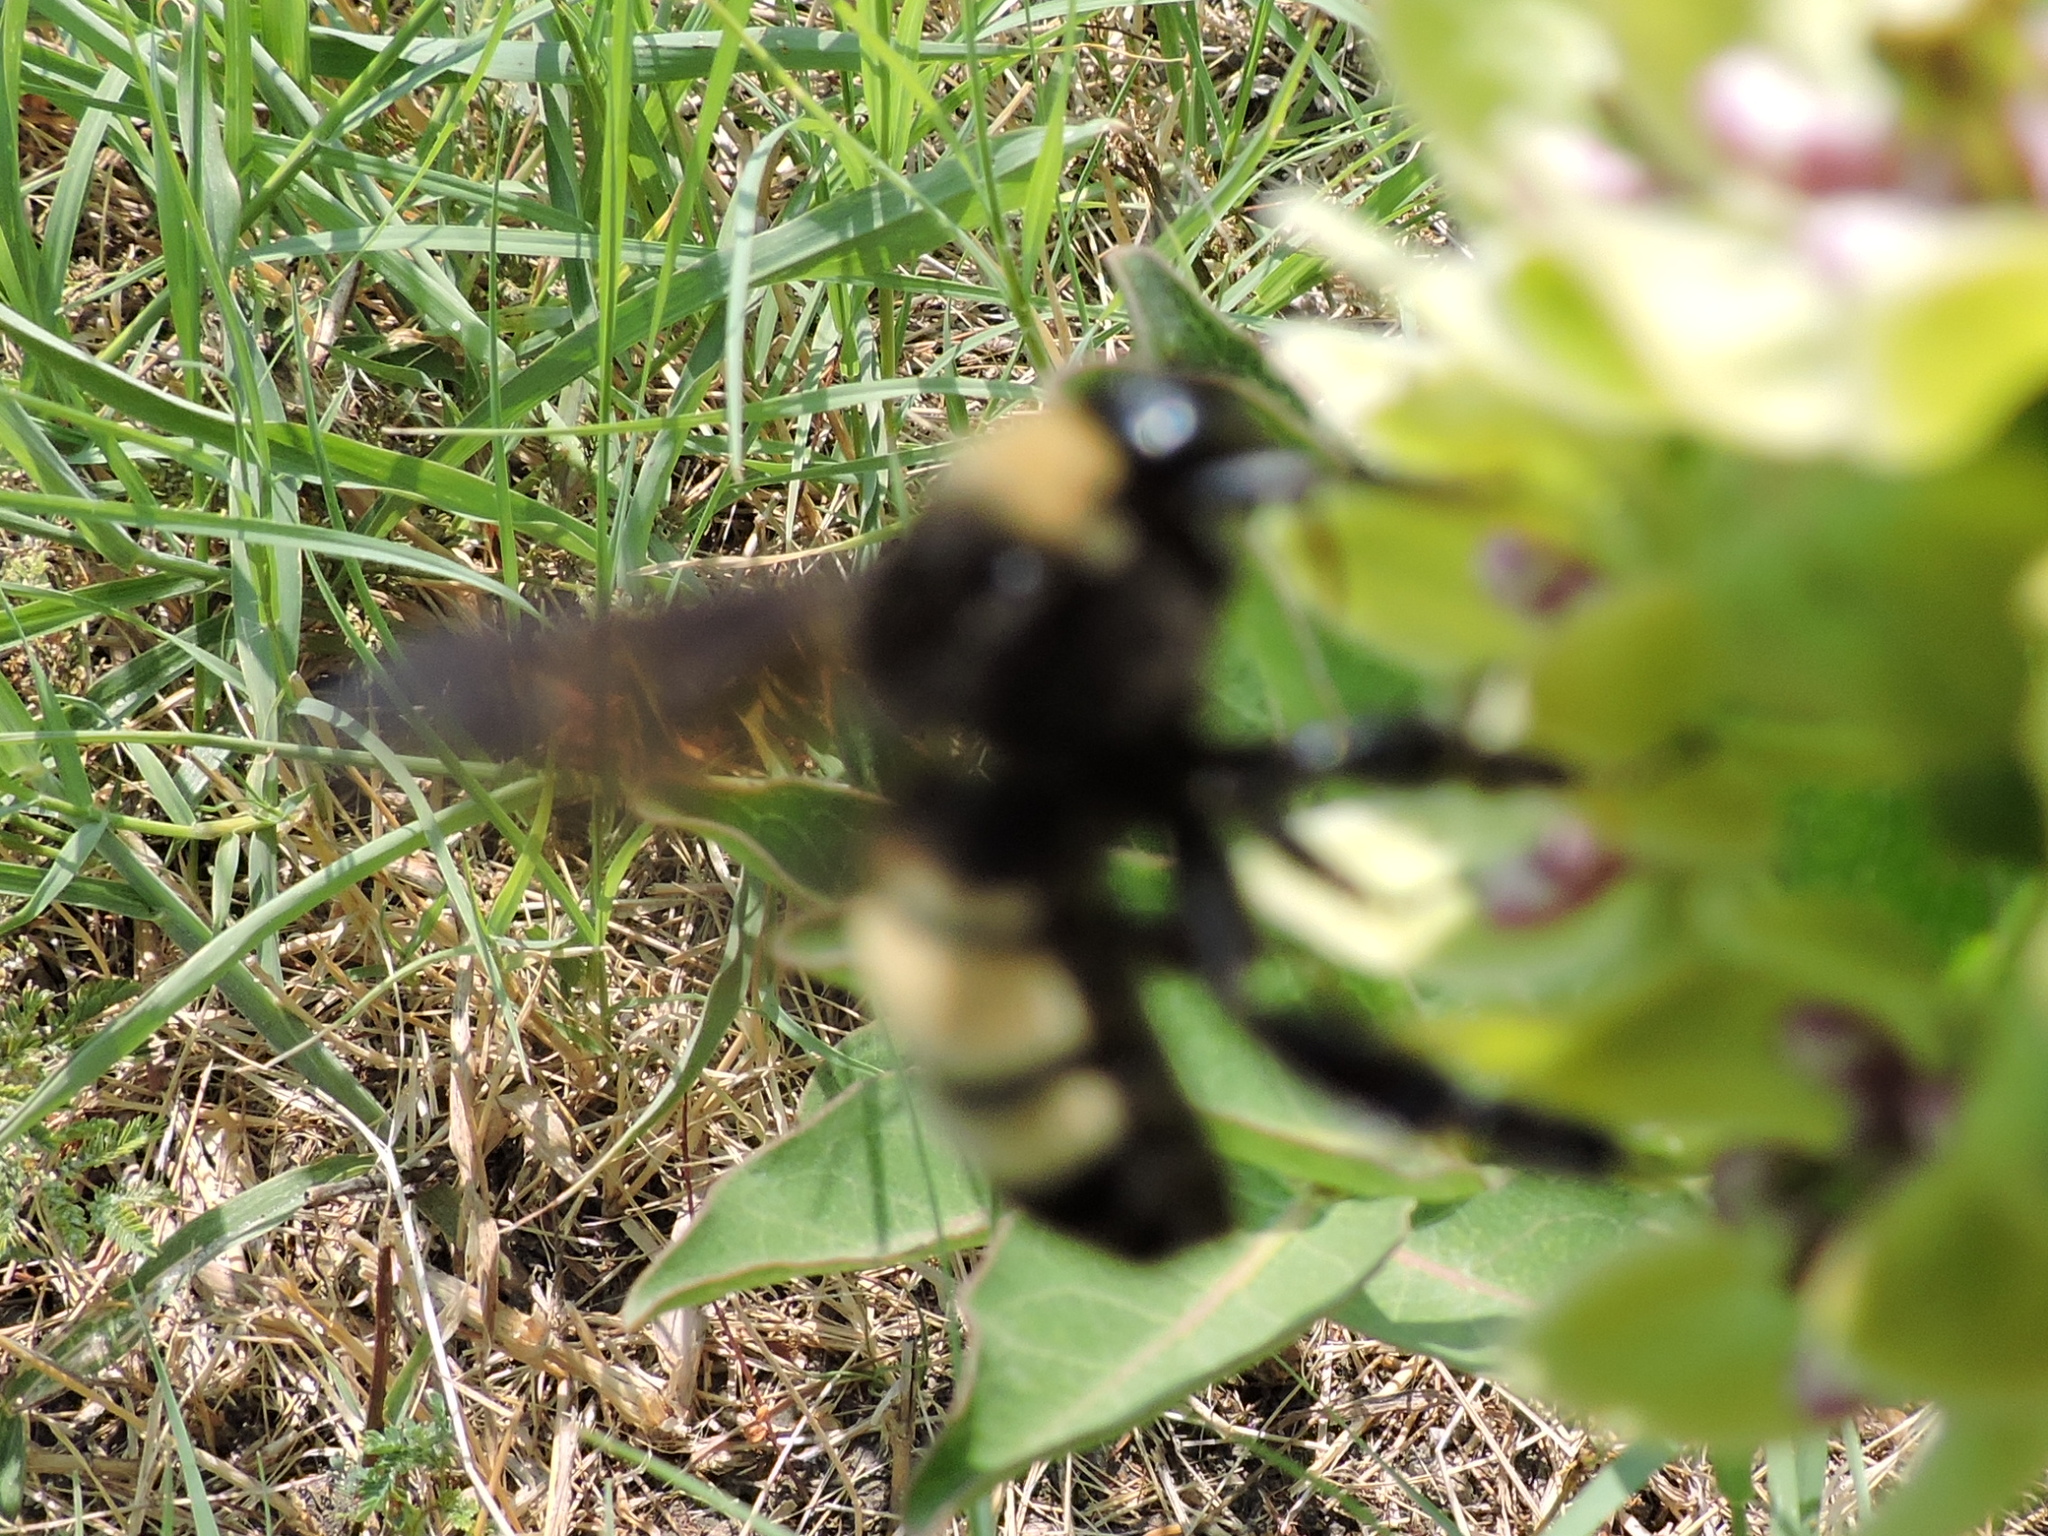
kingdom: Animalia
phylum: Arthropoda
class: Insecta
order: Hymenoptera
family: Apidae
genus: Bombus
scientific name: Bombus pensylvanicus
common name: Bumble bee
